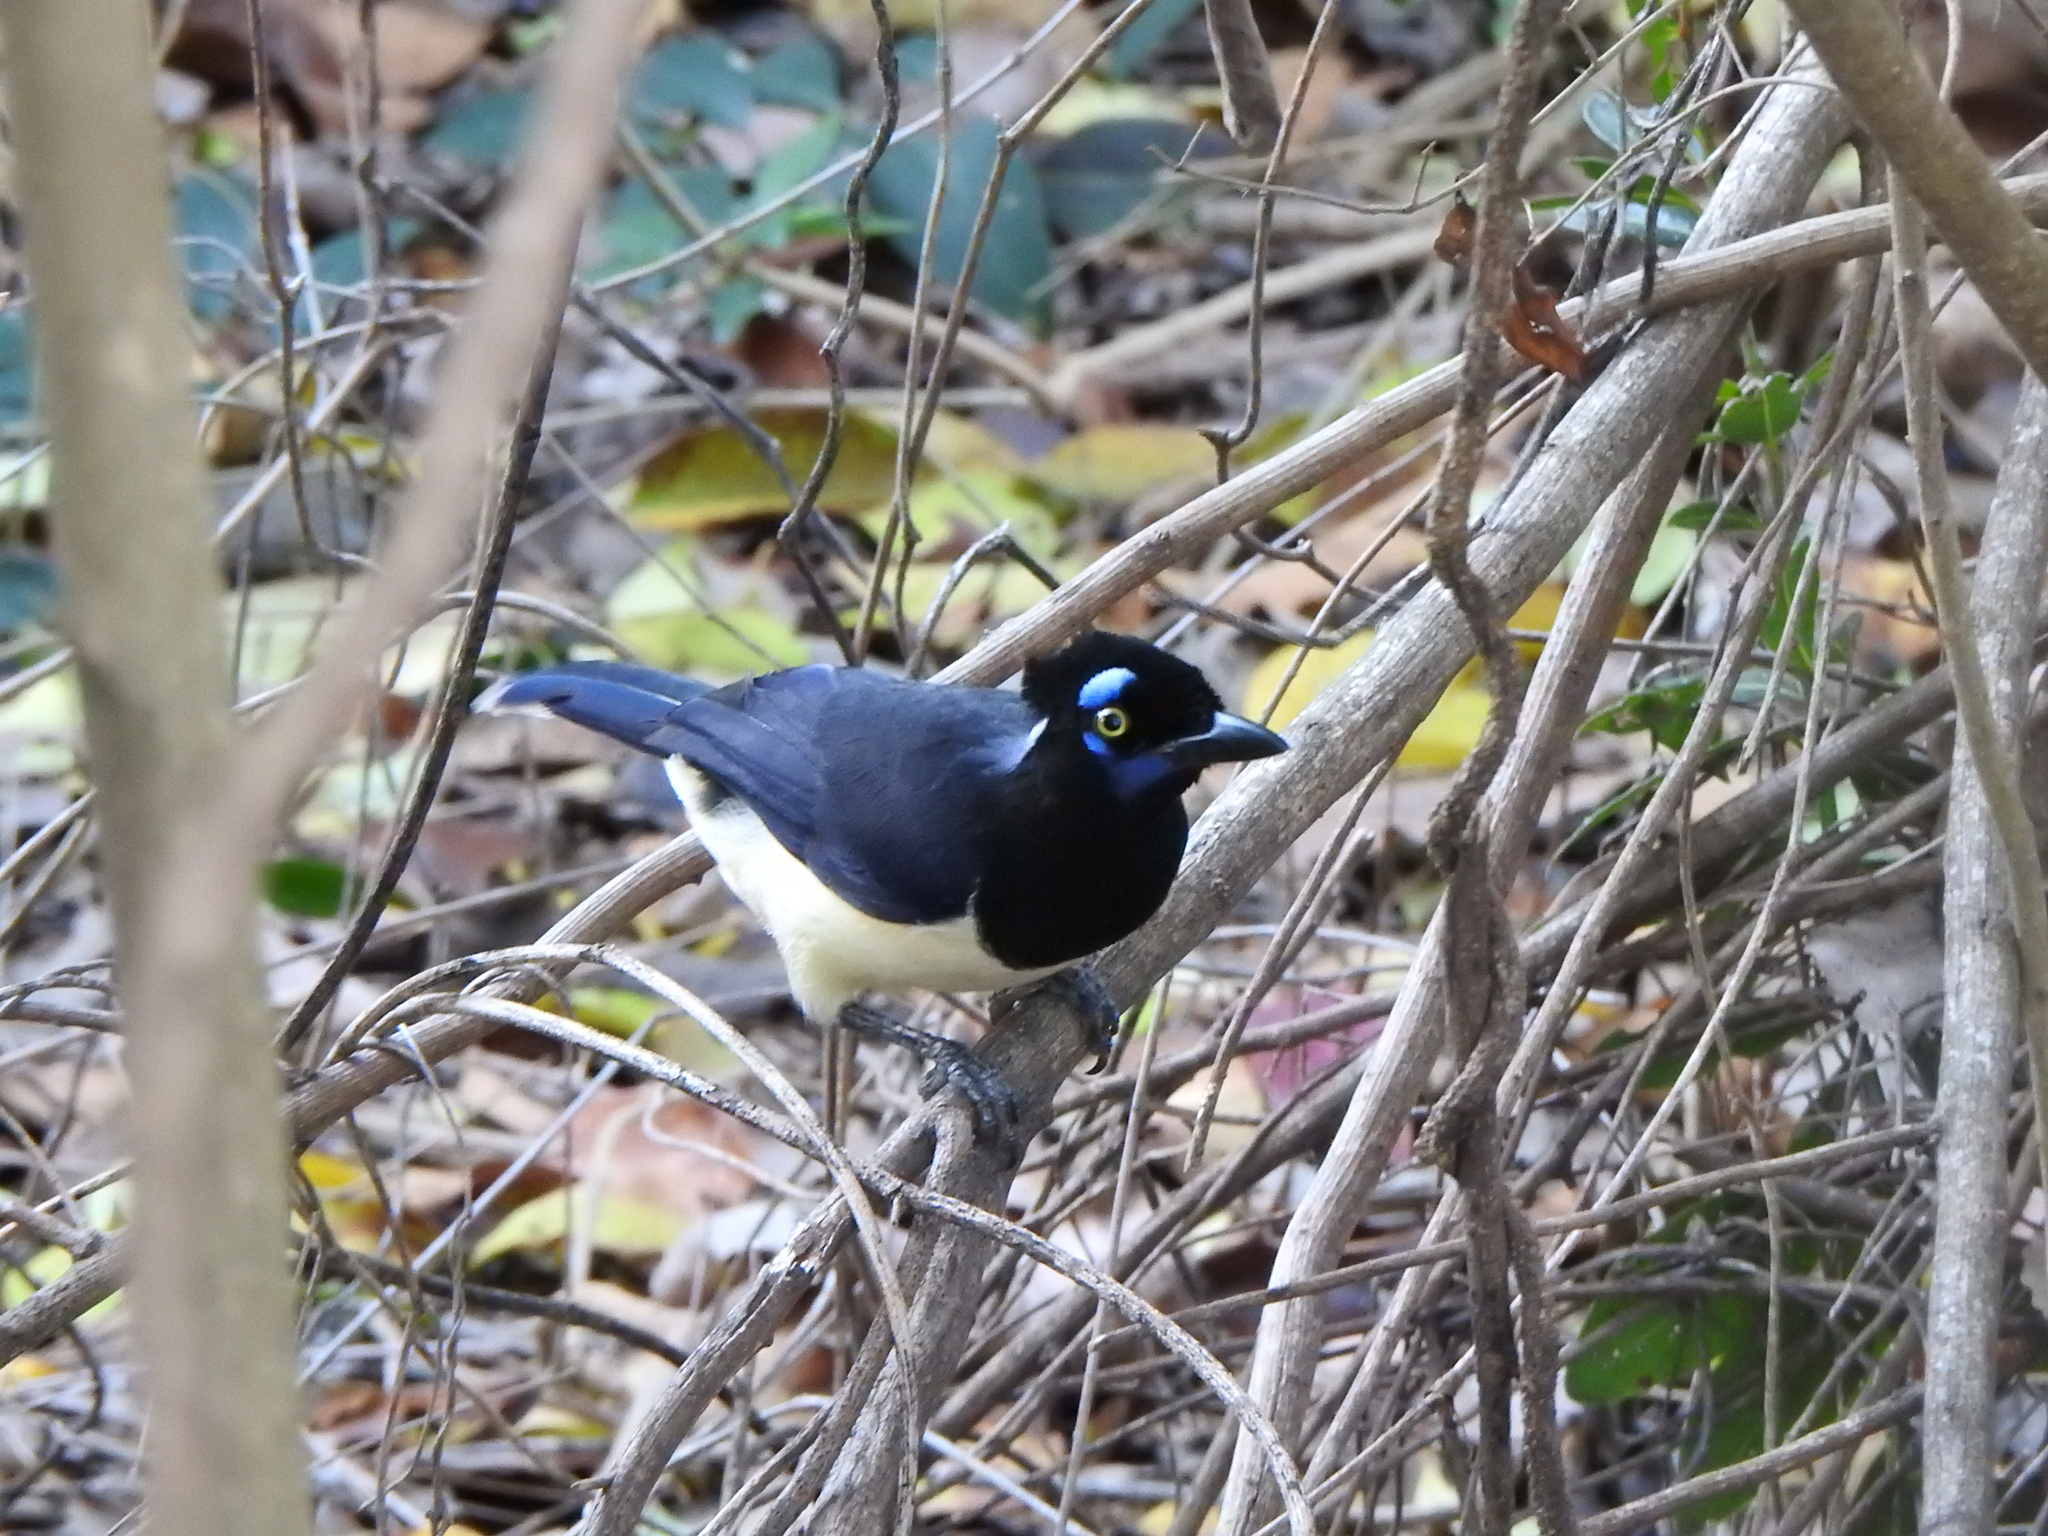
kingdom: Animalia
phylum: Chordata
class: Aves
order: Passeriformes
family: Corvidae
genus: Cyanocorax
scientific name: Cyanocorax chrysops
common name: Plush-crested jay
